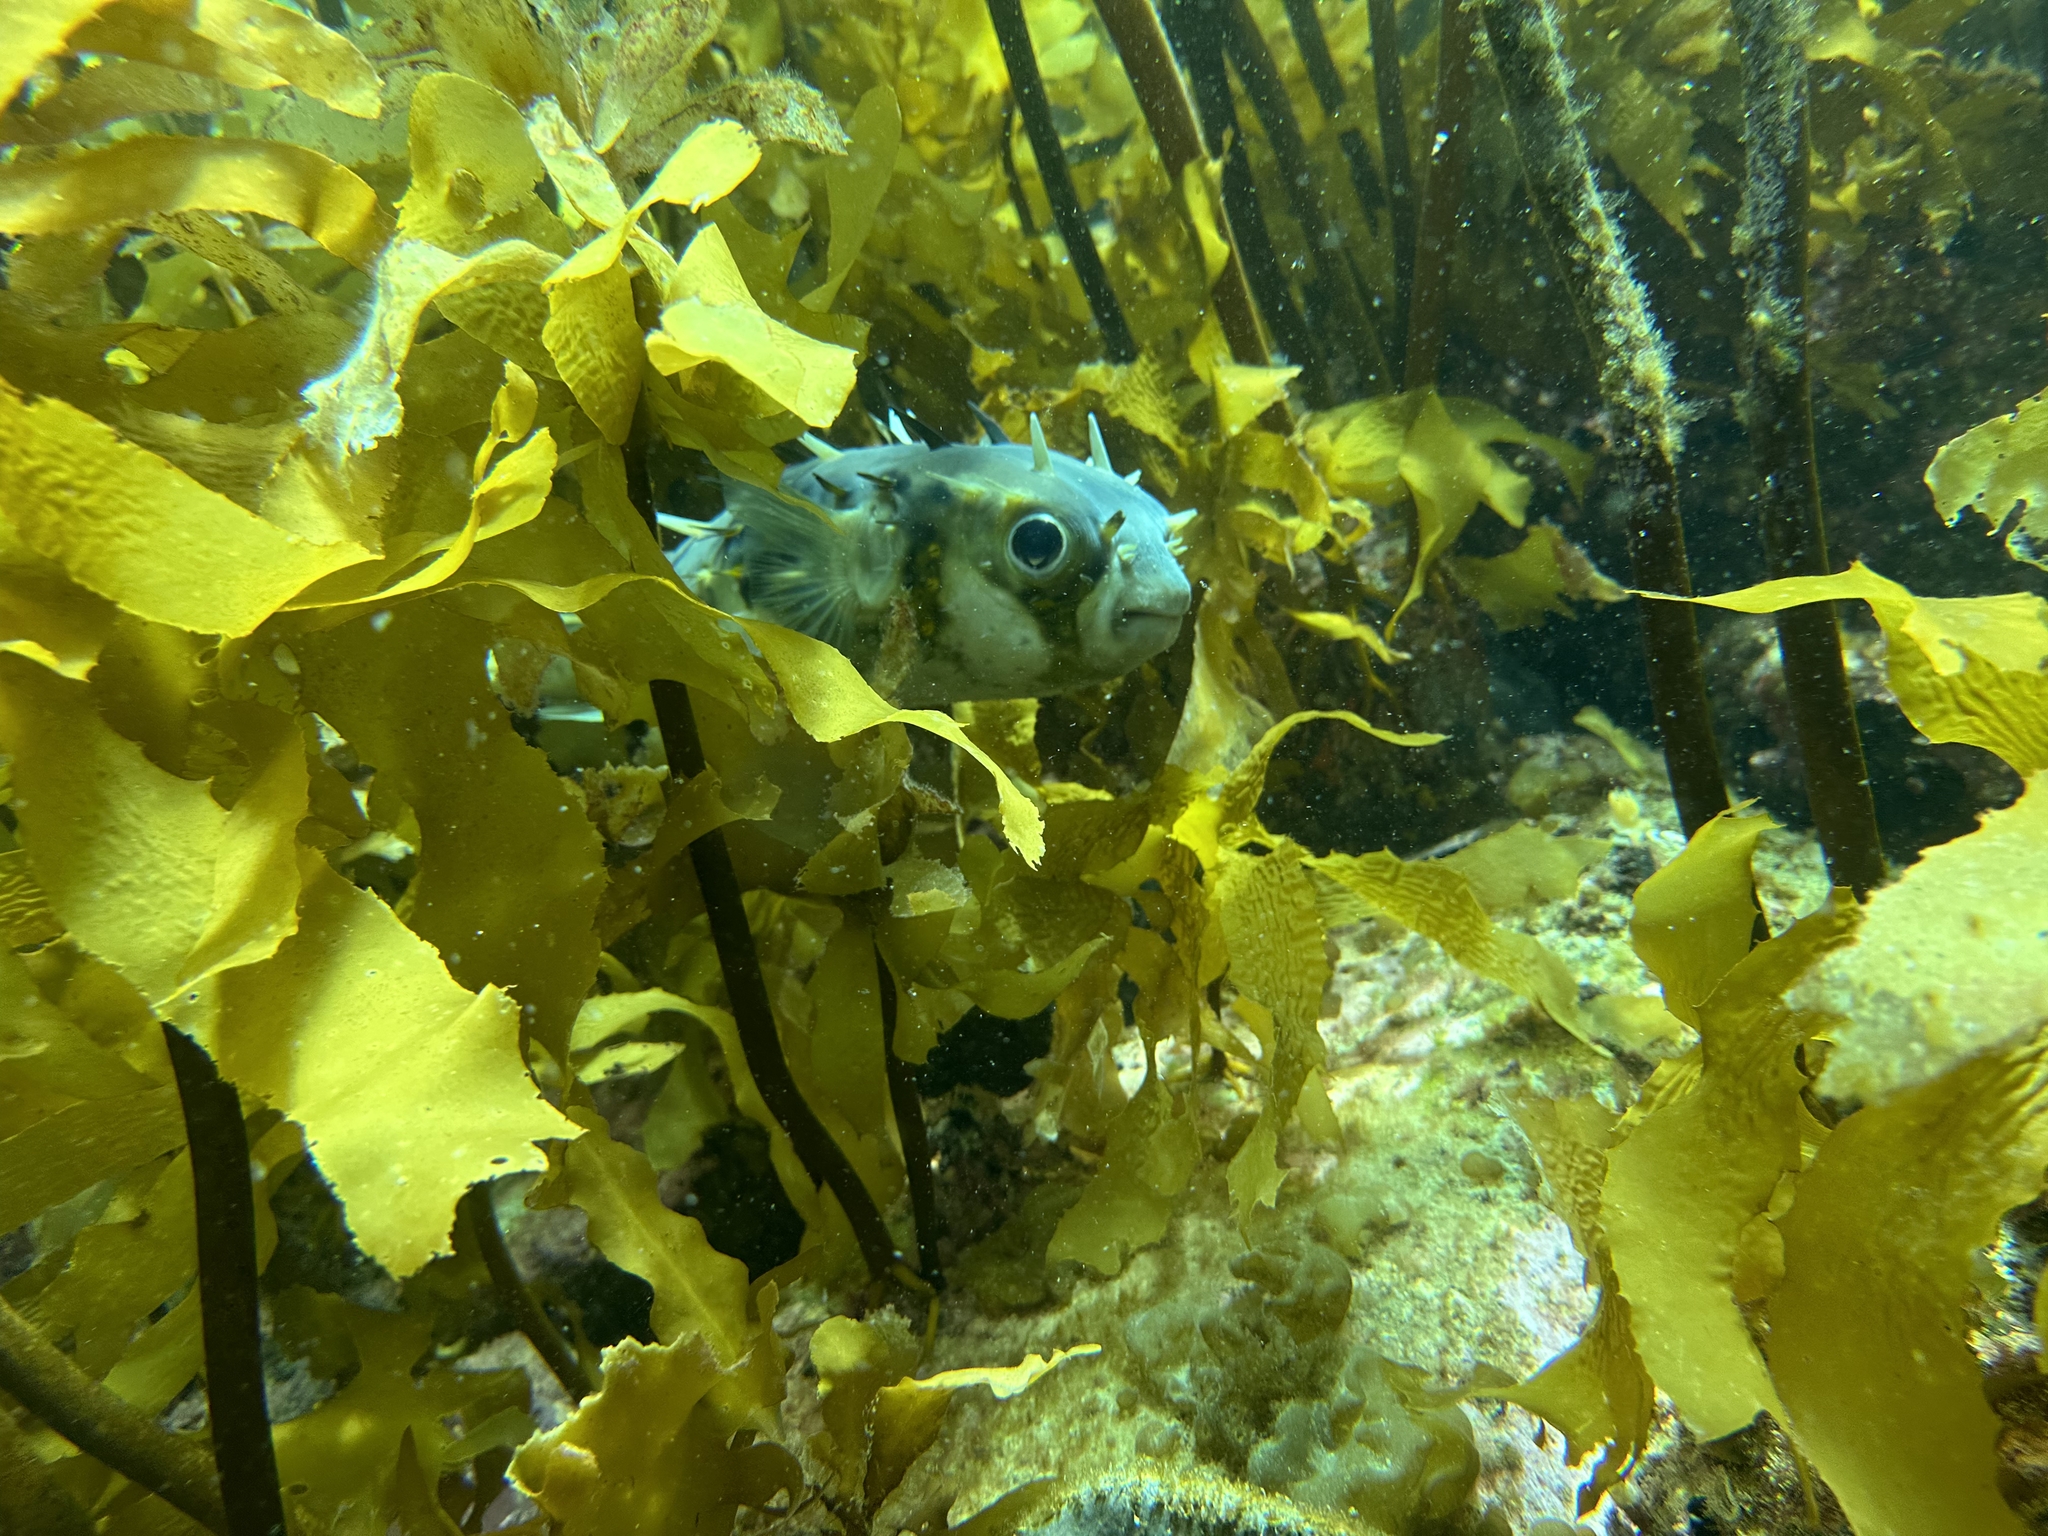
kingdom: Animalia
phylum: Chordata
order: Tetraodontiformes
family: Diodontidae
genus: Allomycterus
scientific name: Allomycterus pilatus
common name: No common name
